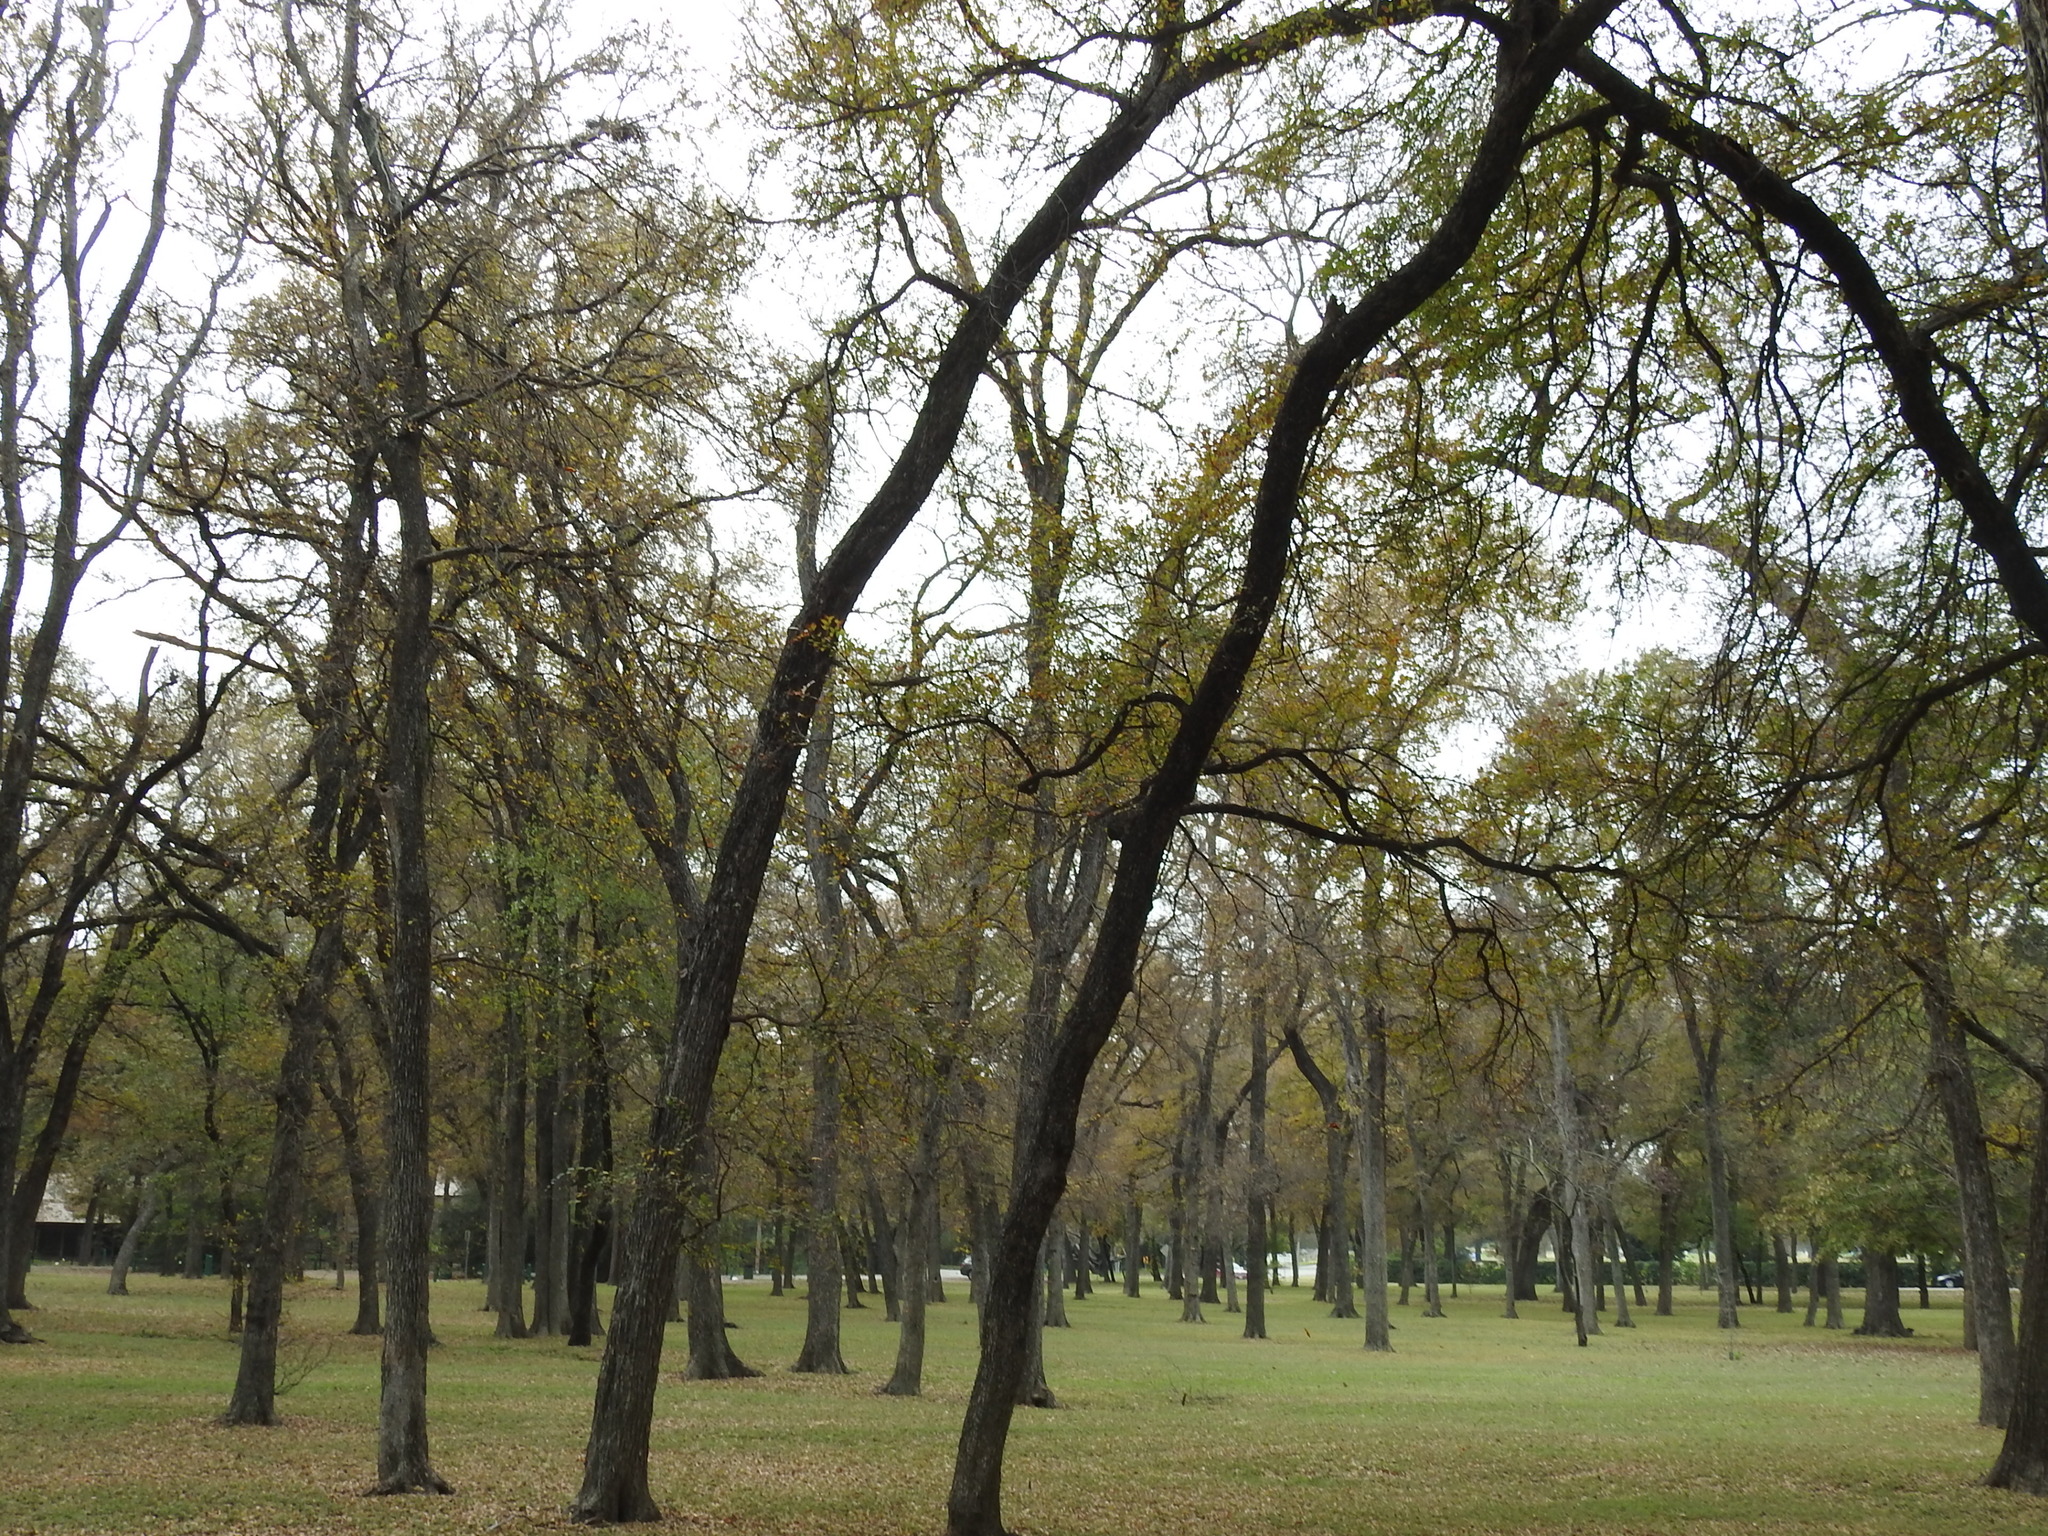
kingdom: Plantae
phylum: Tracheophyta
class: Magnoliopsida
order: Rosales
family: Ulmaceae
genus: Ulmus
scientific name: Ulmus crassifolia
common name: Basket elm
